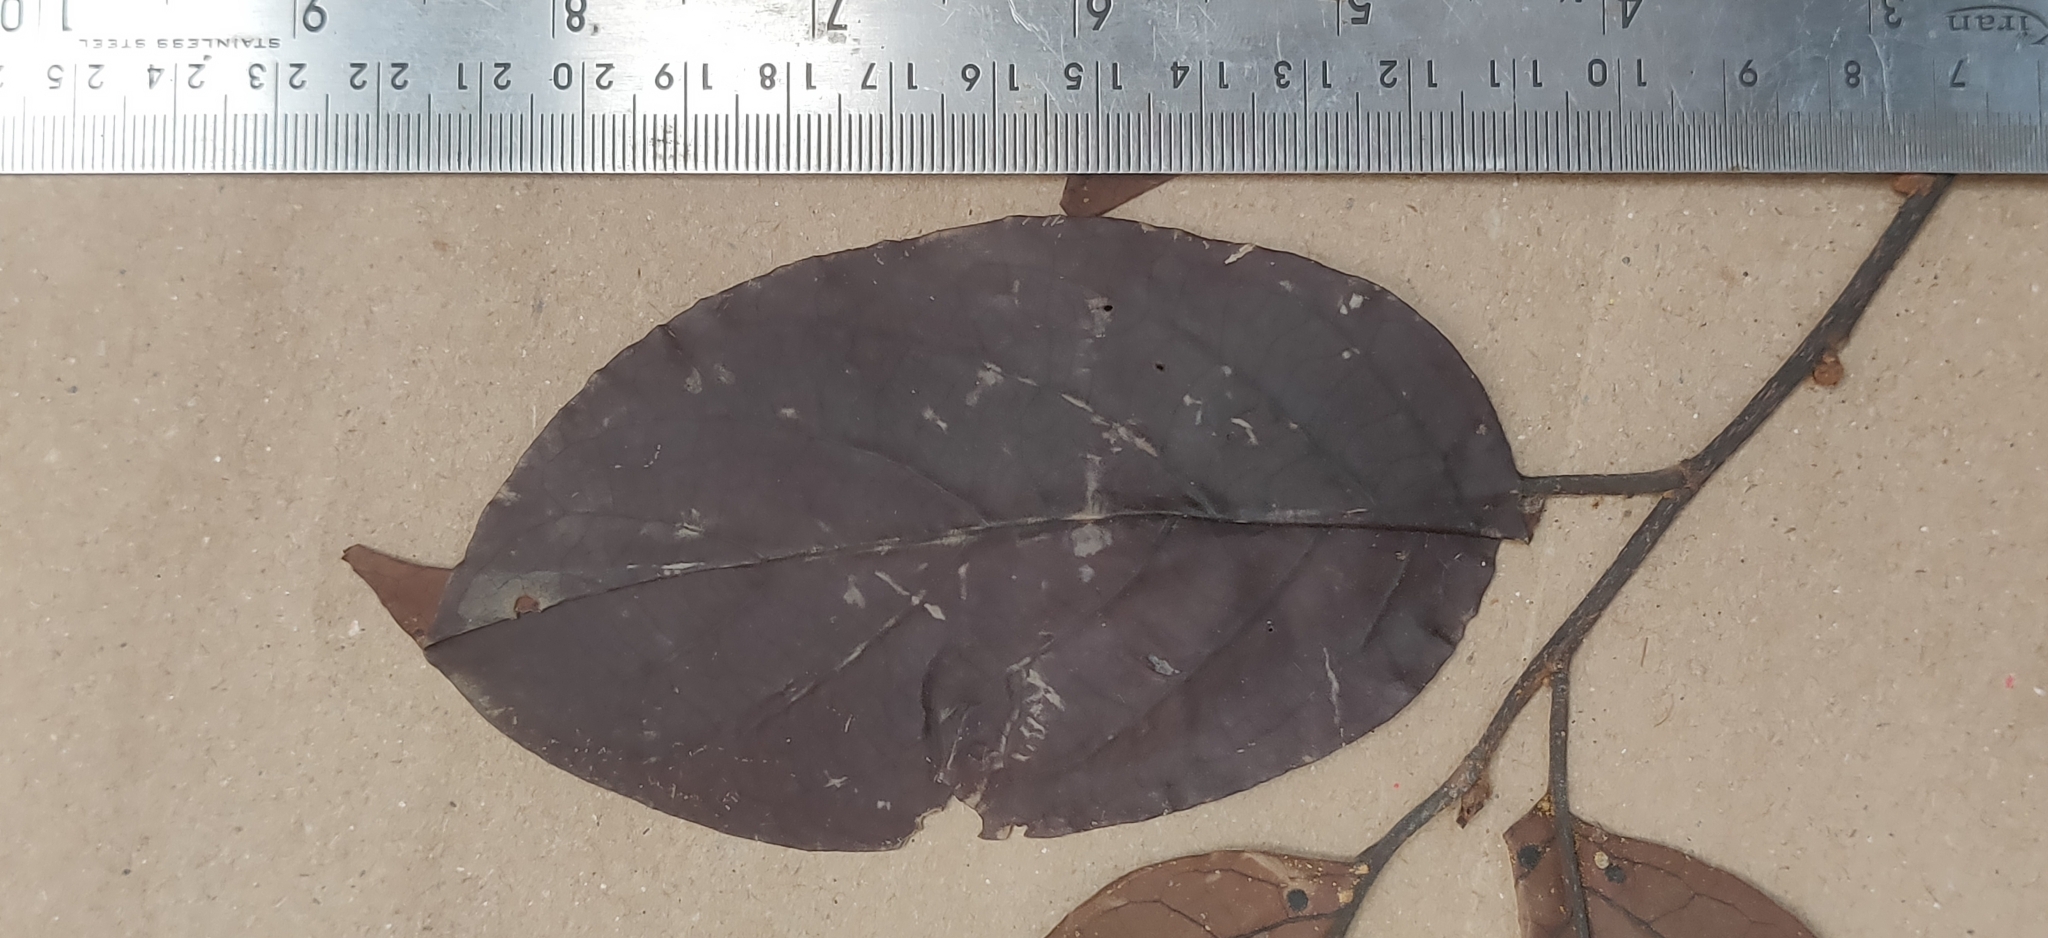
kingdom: Plantae
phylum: Tracheophyta
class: Magnoliopsida
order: Malpighiales
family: Salicaceae
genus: Casearia
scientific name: Casearia rubescens
